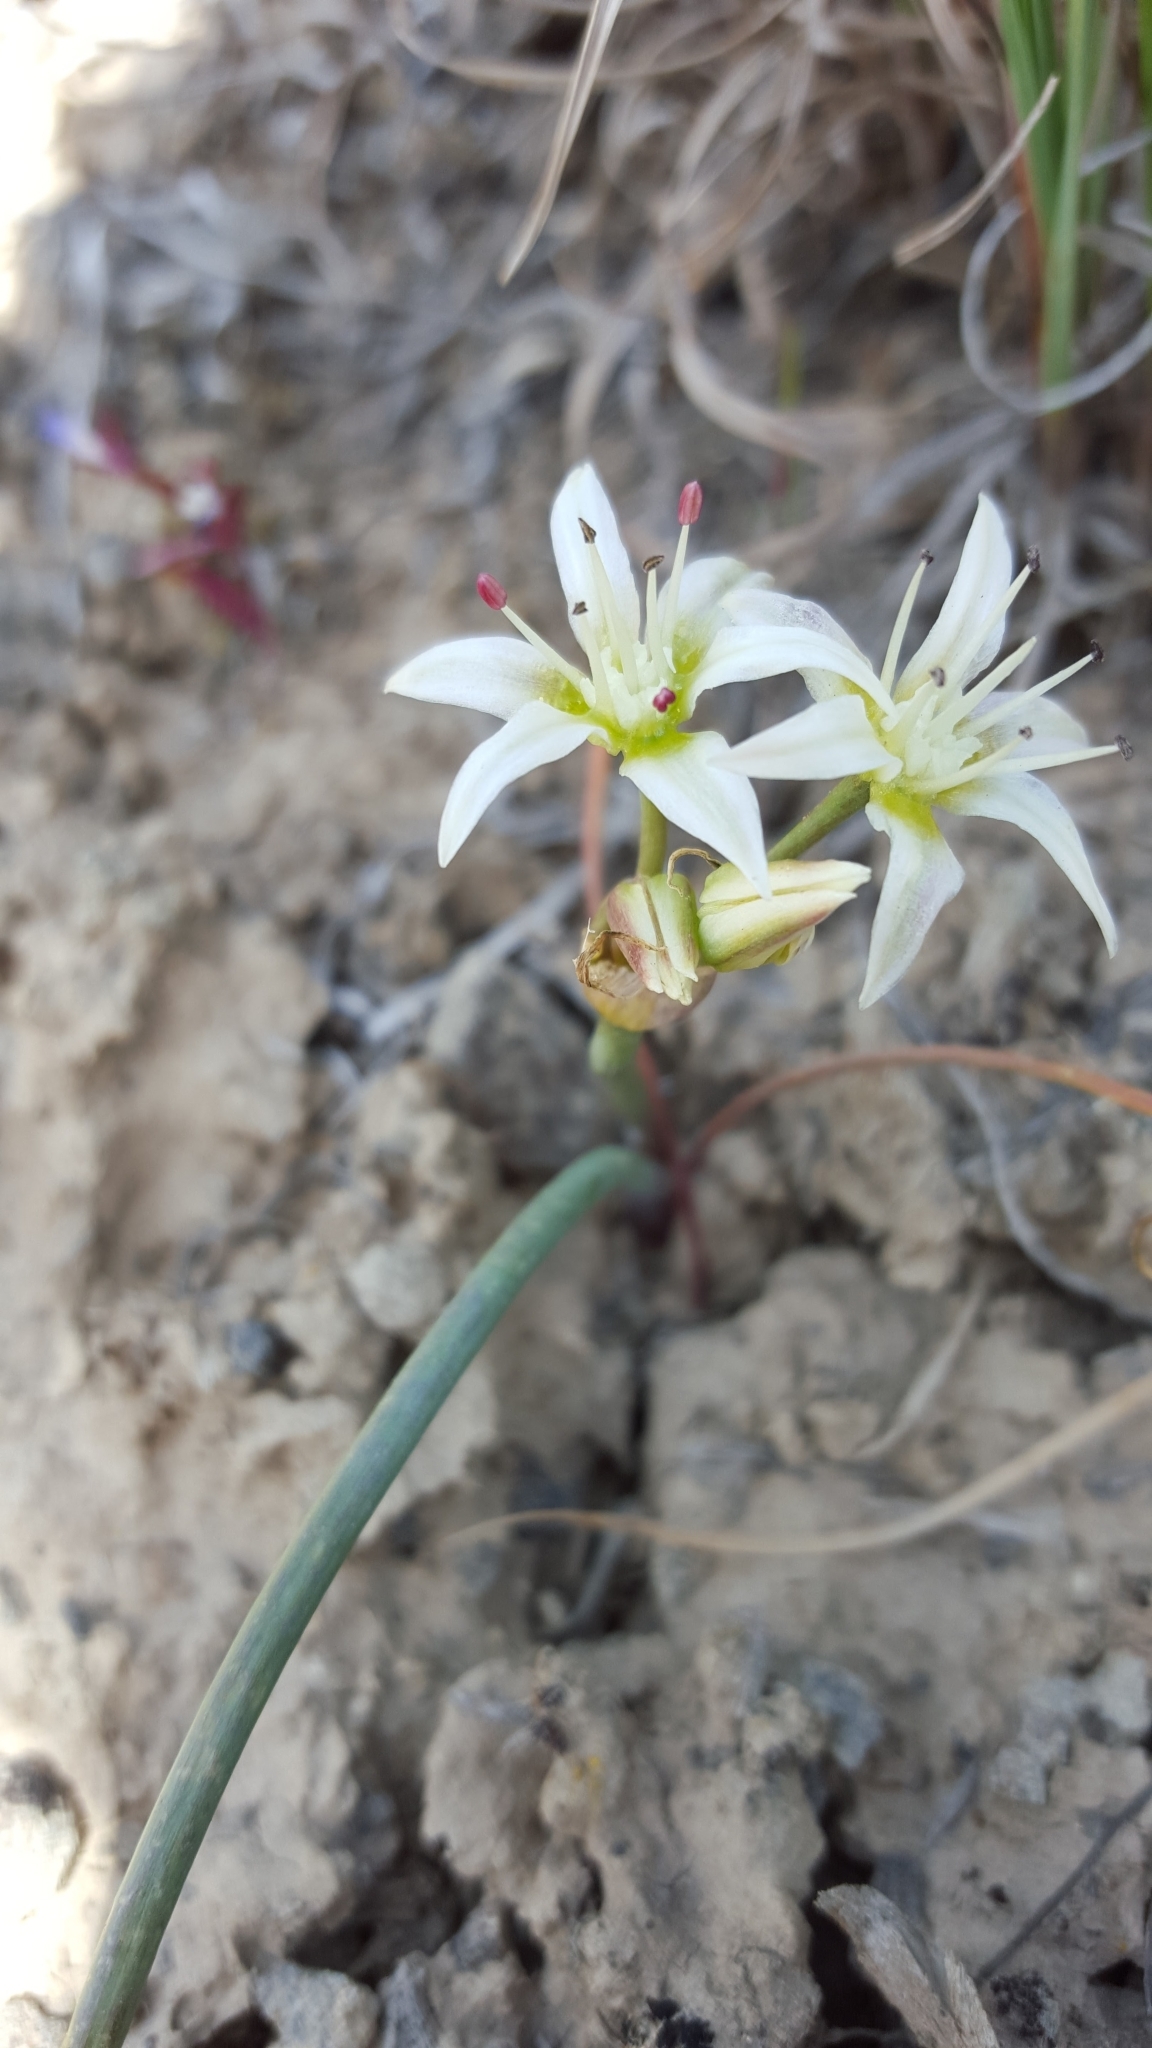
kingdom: Plantae
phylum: Tracheophyta
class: Liliopsida
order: Asparagales
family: Amaryllidaceae
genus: Allium
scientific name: Allium nevadense
